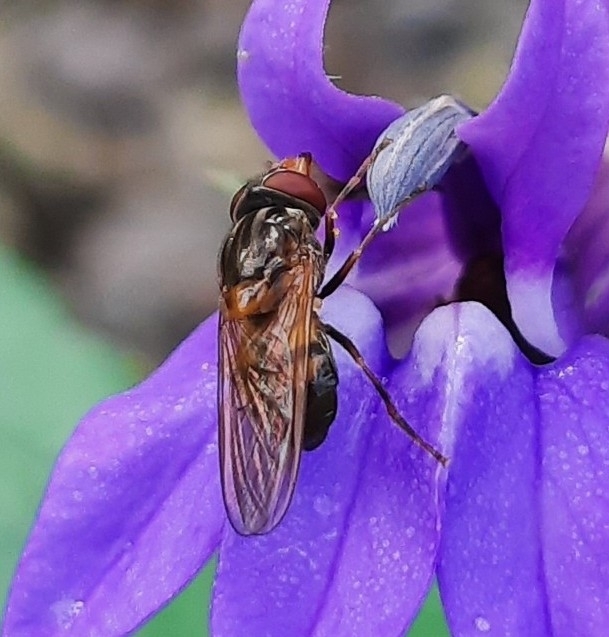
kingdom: Animalia
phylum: Arthropoda
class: Insecta
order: Diptera
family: Syrphidae
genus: Rhingia
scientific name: Rhingia nasica
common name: American snout fly
